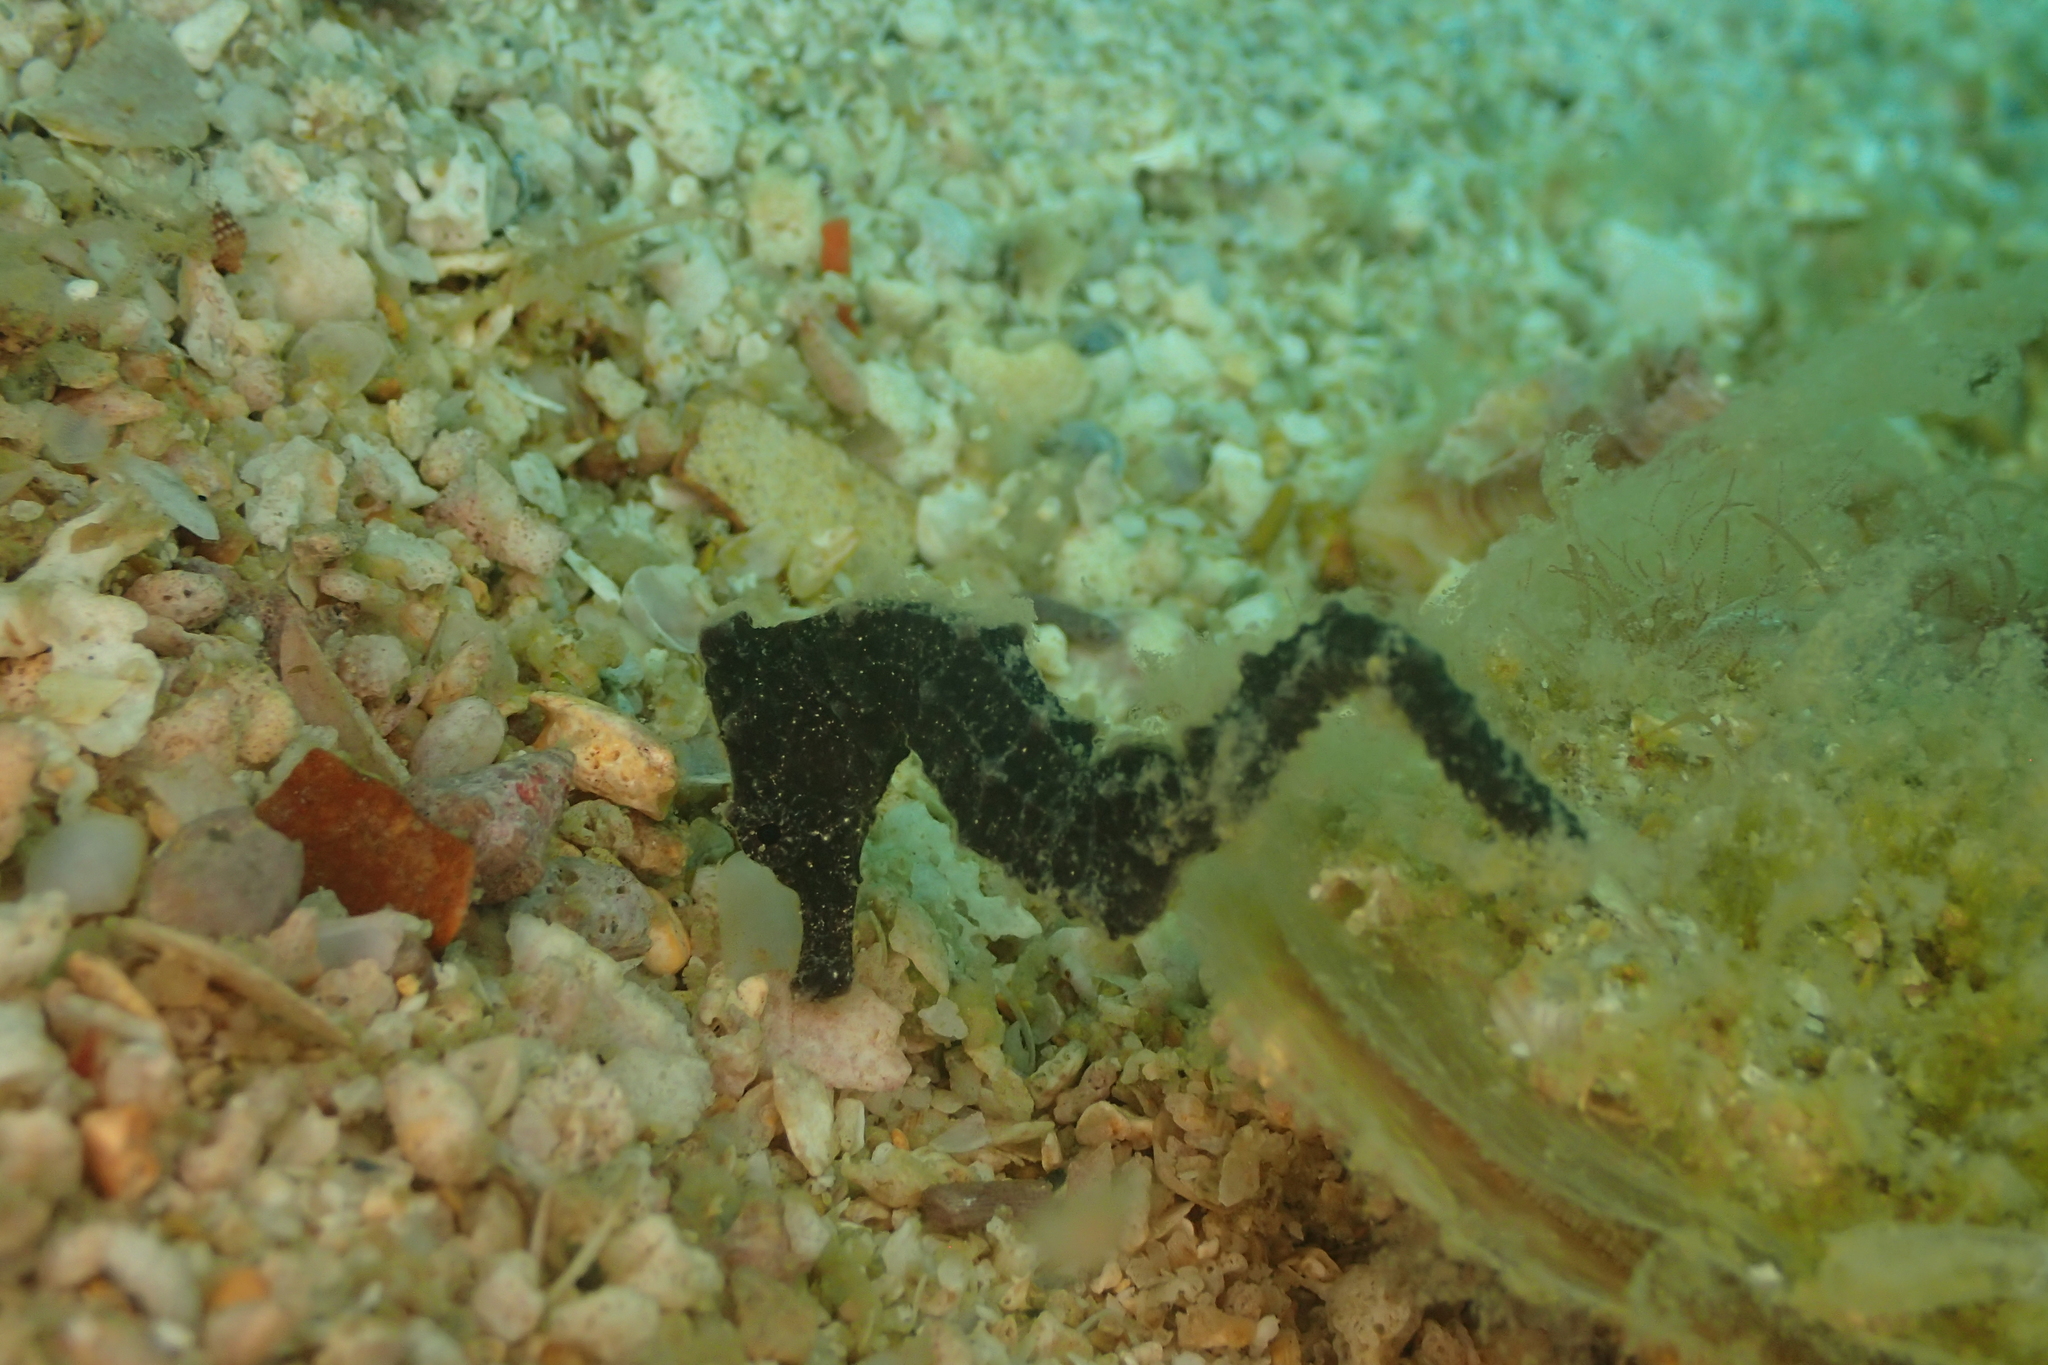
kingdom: Animalia
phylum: Chordata
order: Syngnathiformes
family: Syngnathidae
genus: Hippocampus
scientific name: Hippocampus kuda
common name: Spotted seahorse
